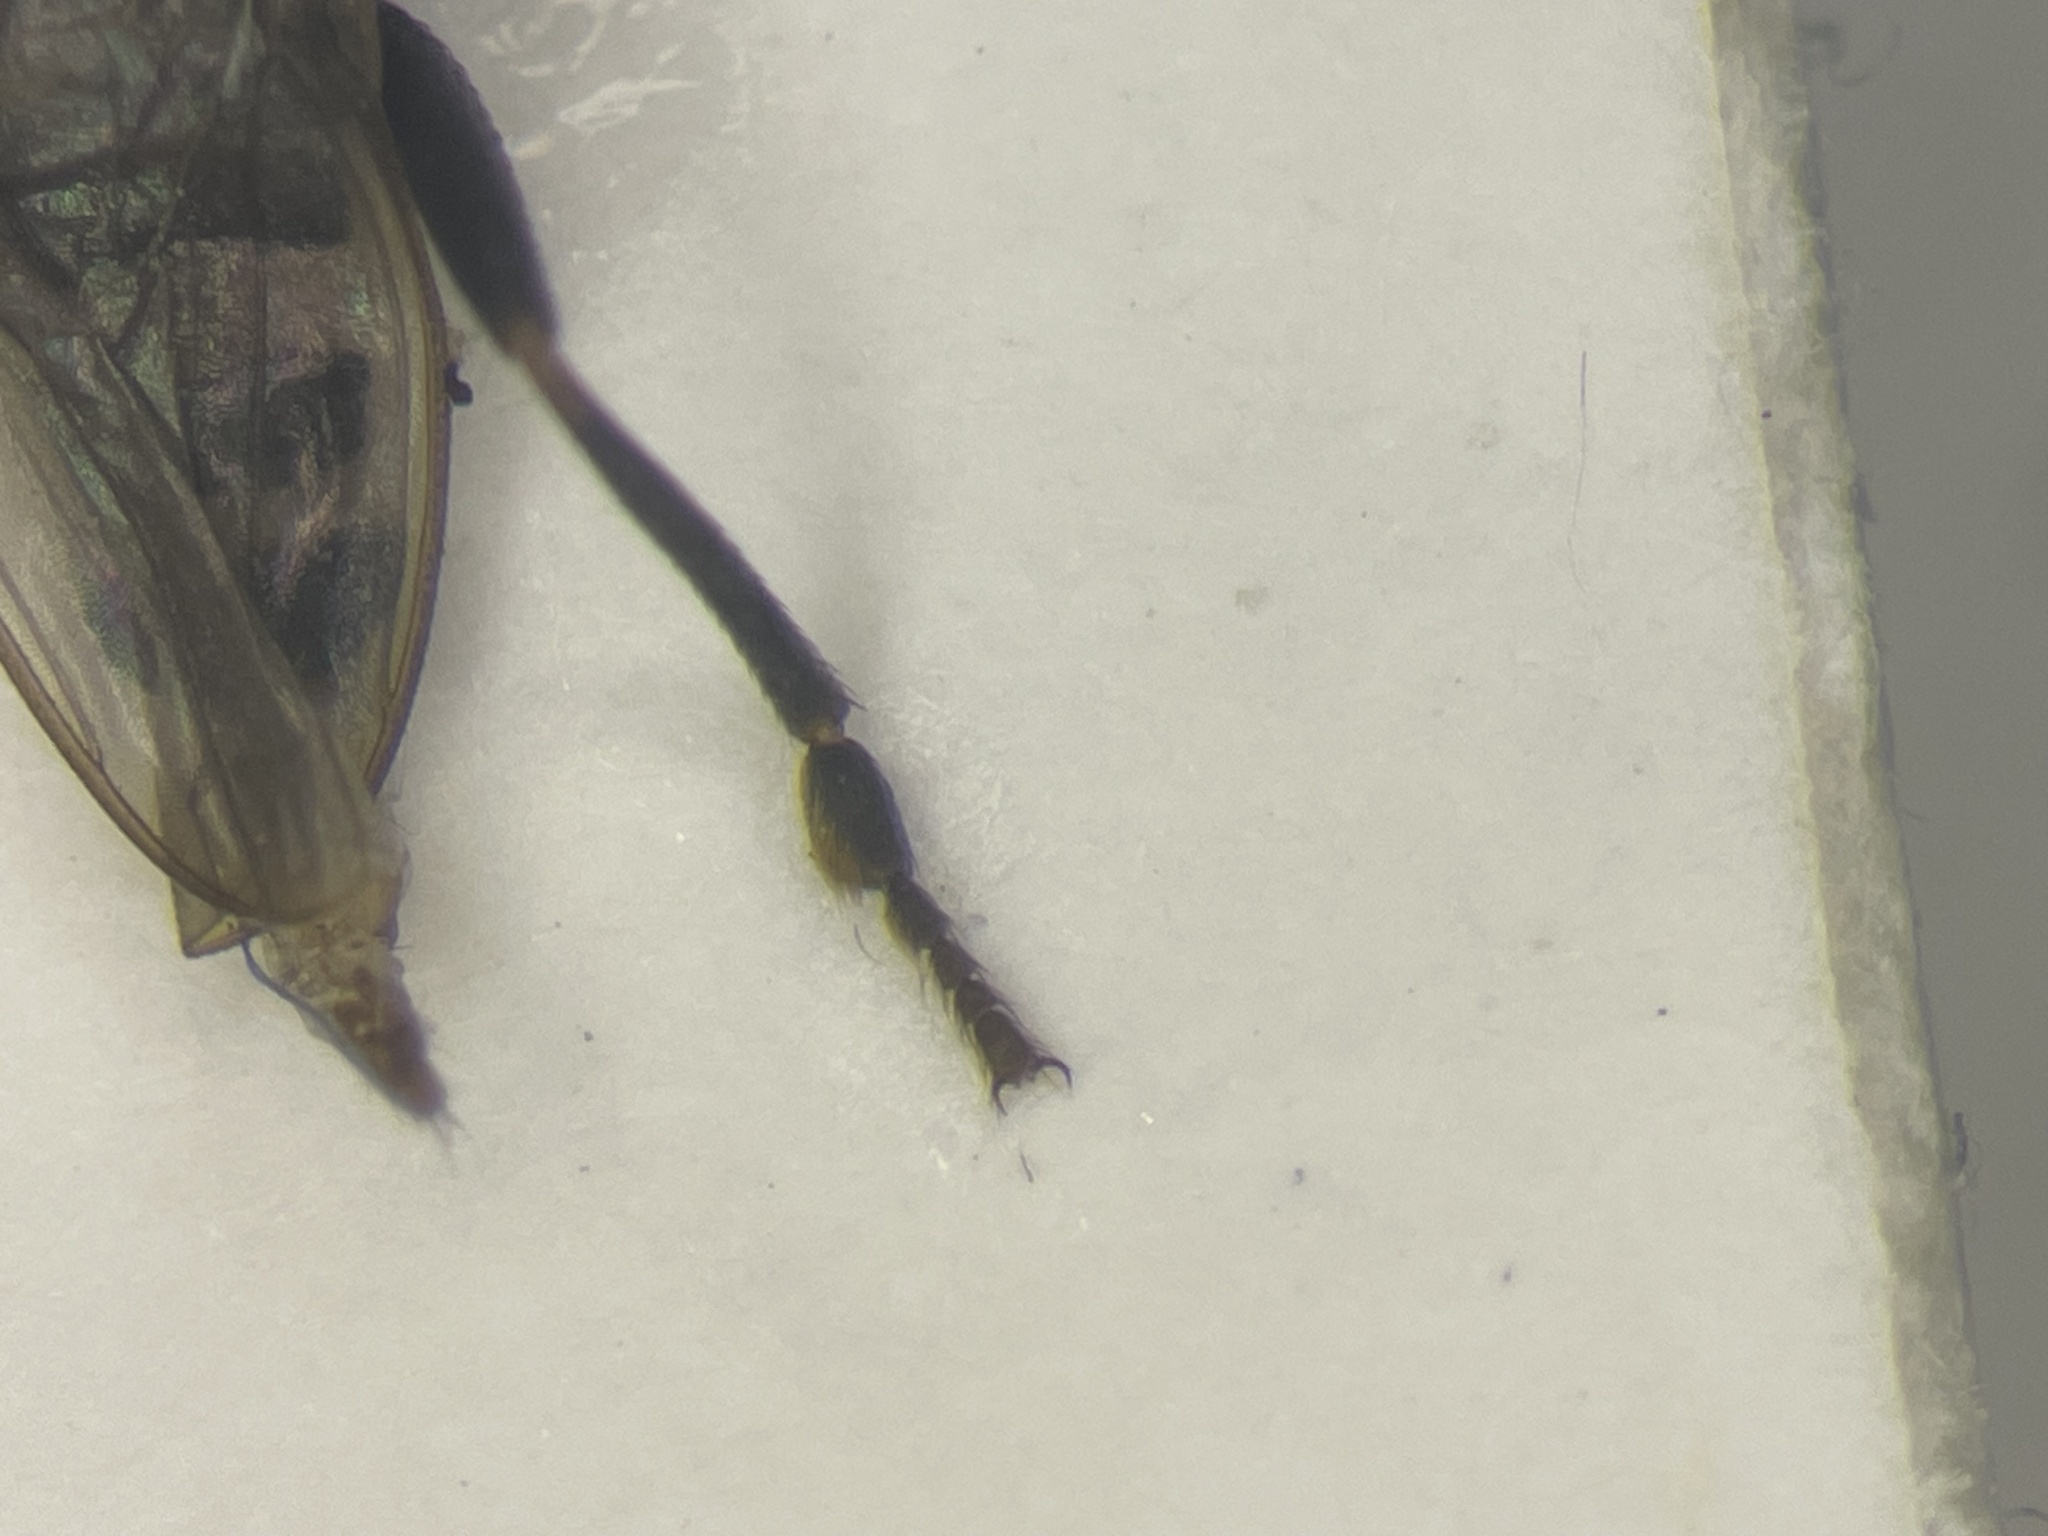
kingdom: Animalia
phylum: Arthropoda
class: Insecta
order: Diptera
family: Sphaeroceridae
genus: Mesosphaerocera
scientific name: Mesosphaerocera annulicornis
